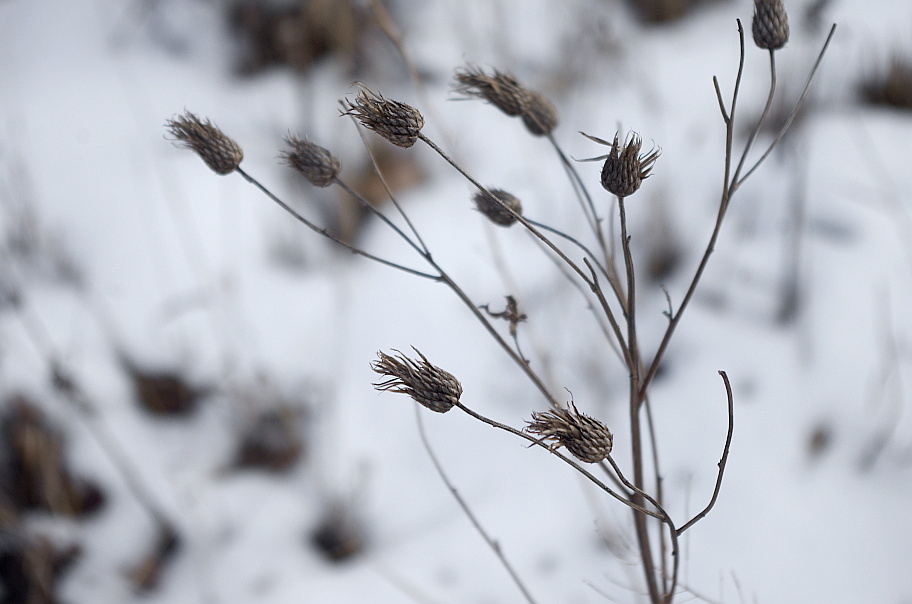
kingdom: Plantae
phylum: Tracheophyta
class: Magnoliopsida
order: Asterales
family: Asteraceae
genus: Cirsium
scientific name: Cirsium vulgare
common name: Bull thistle
